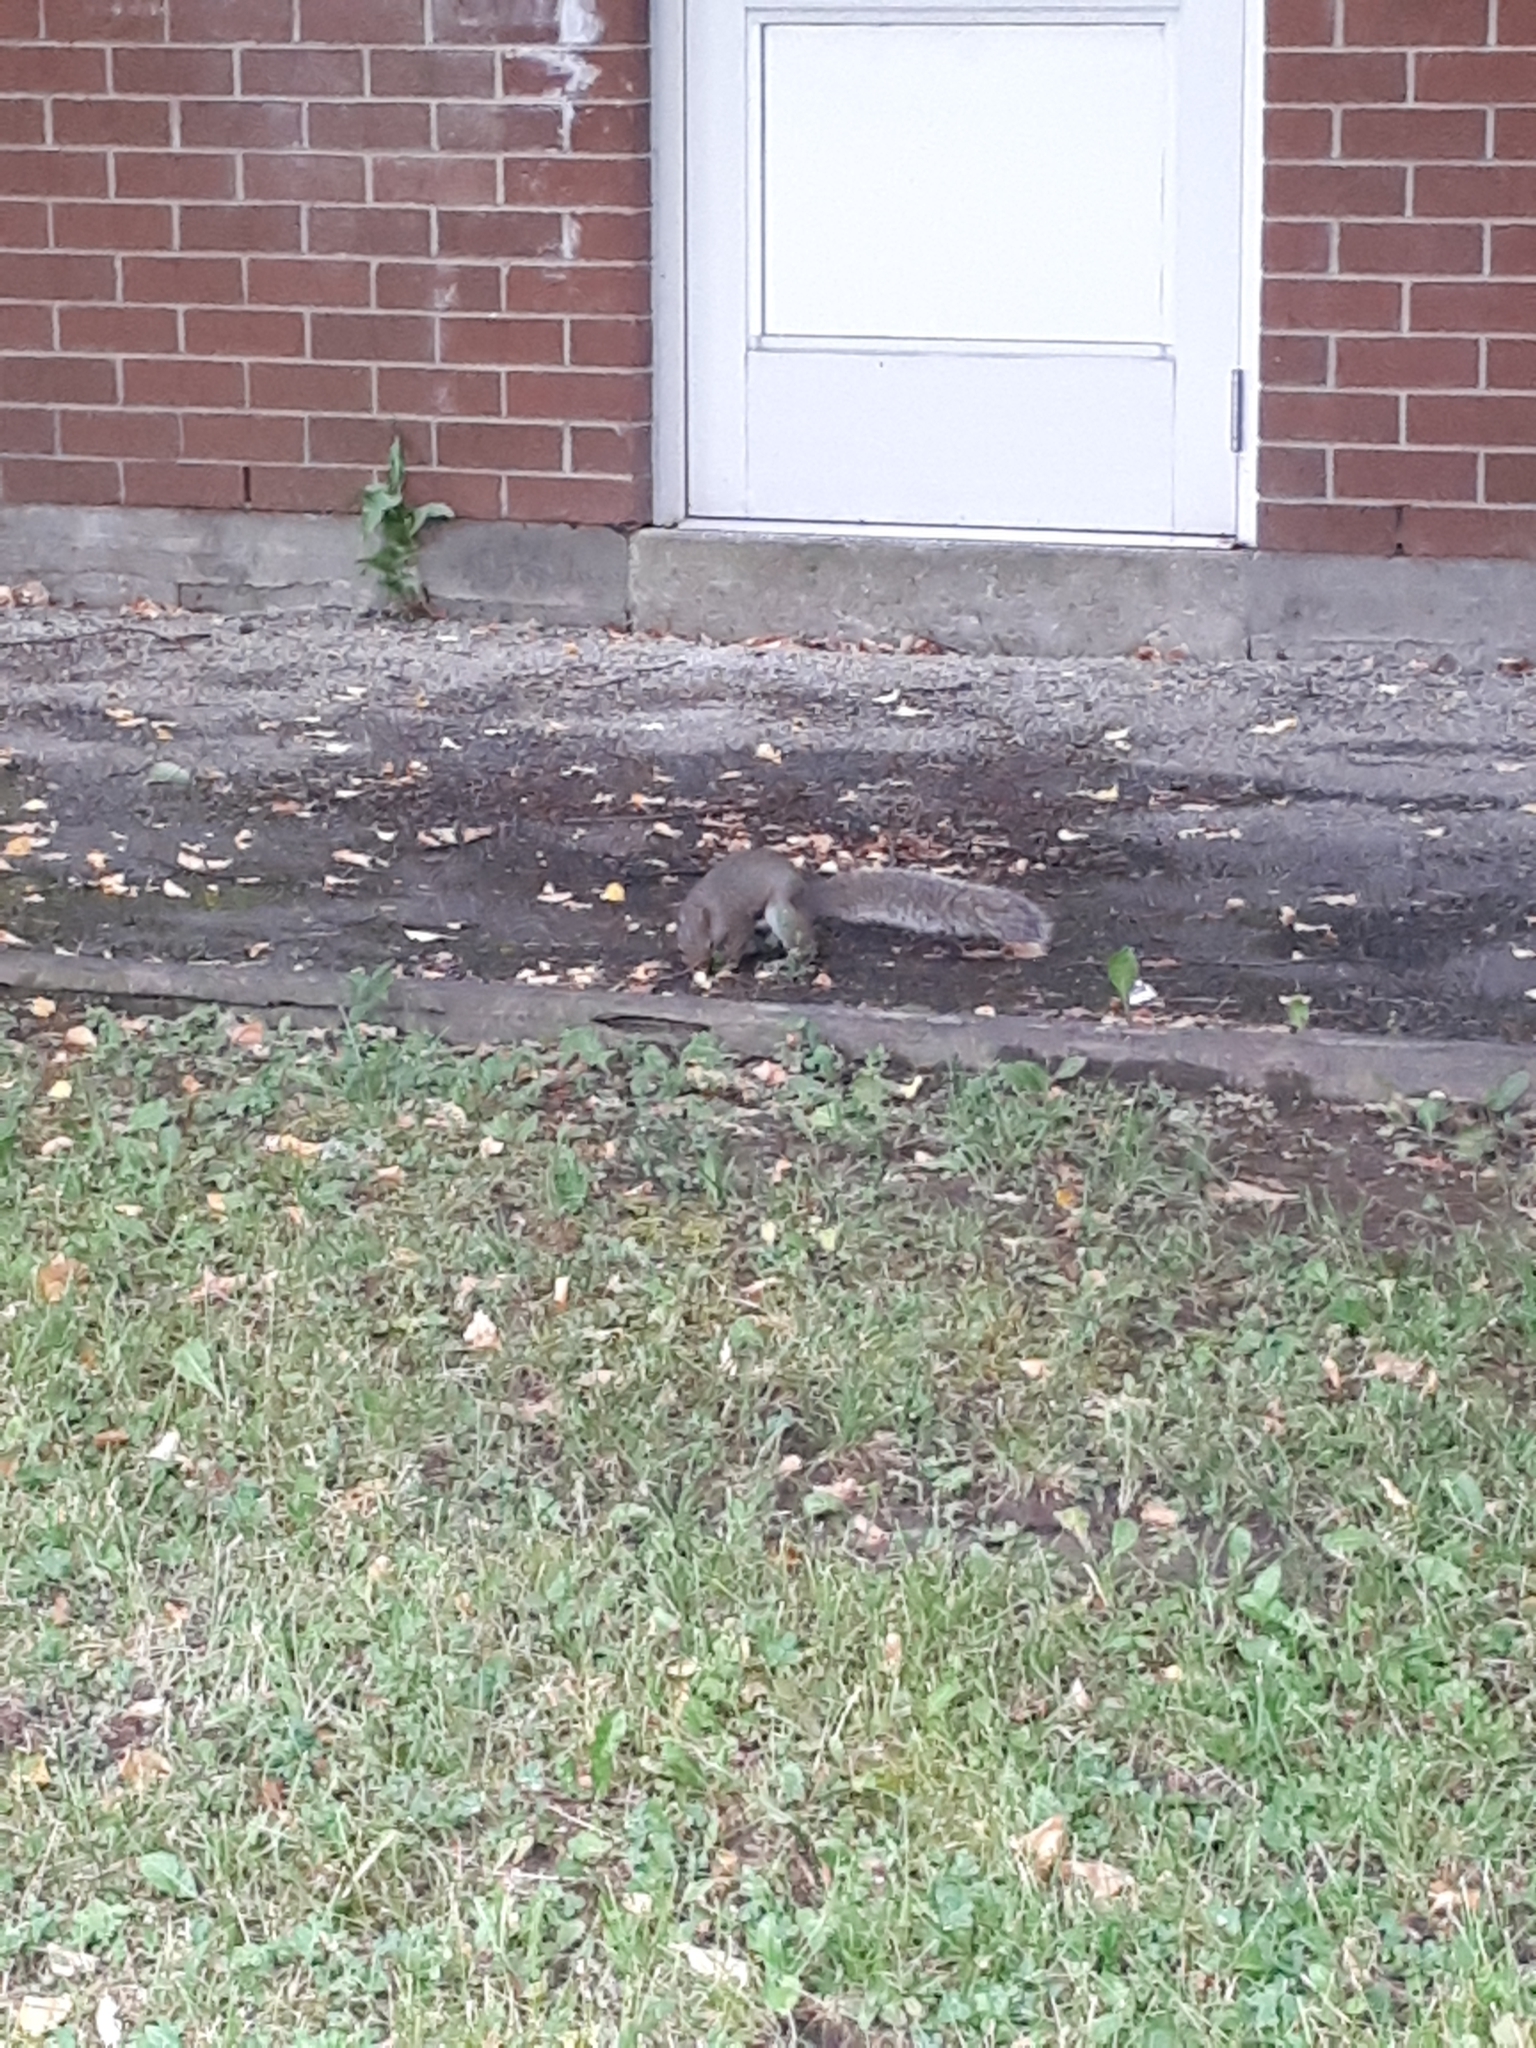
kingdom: Animalia
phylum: Chordata
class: Mammalia
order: Rodentia
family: Sciuridae
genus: Sciurus
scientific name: Sciurus carolinensis
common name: Eastern gray squirrel
